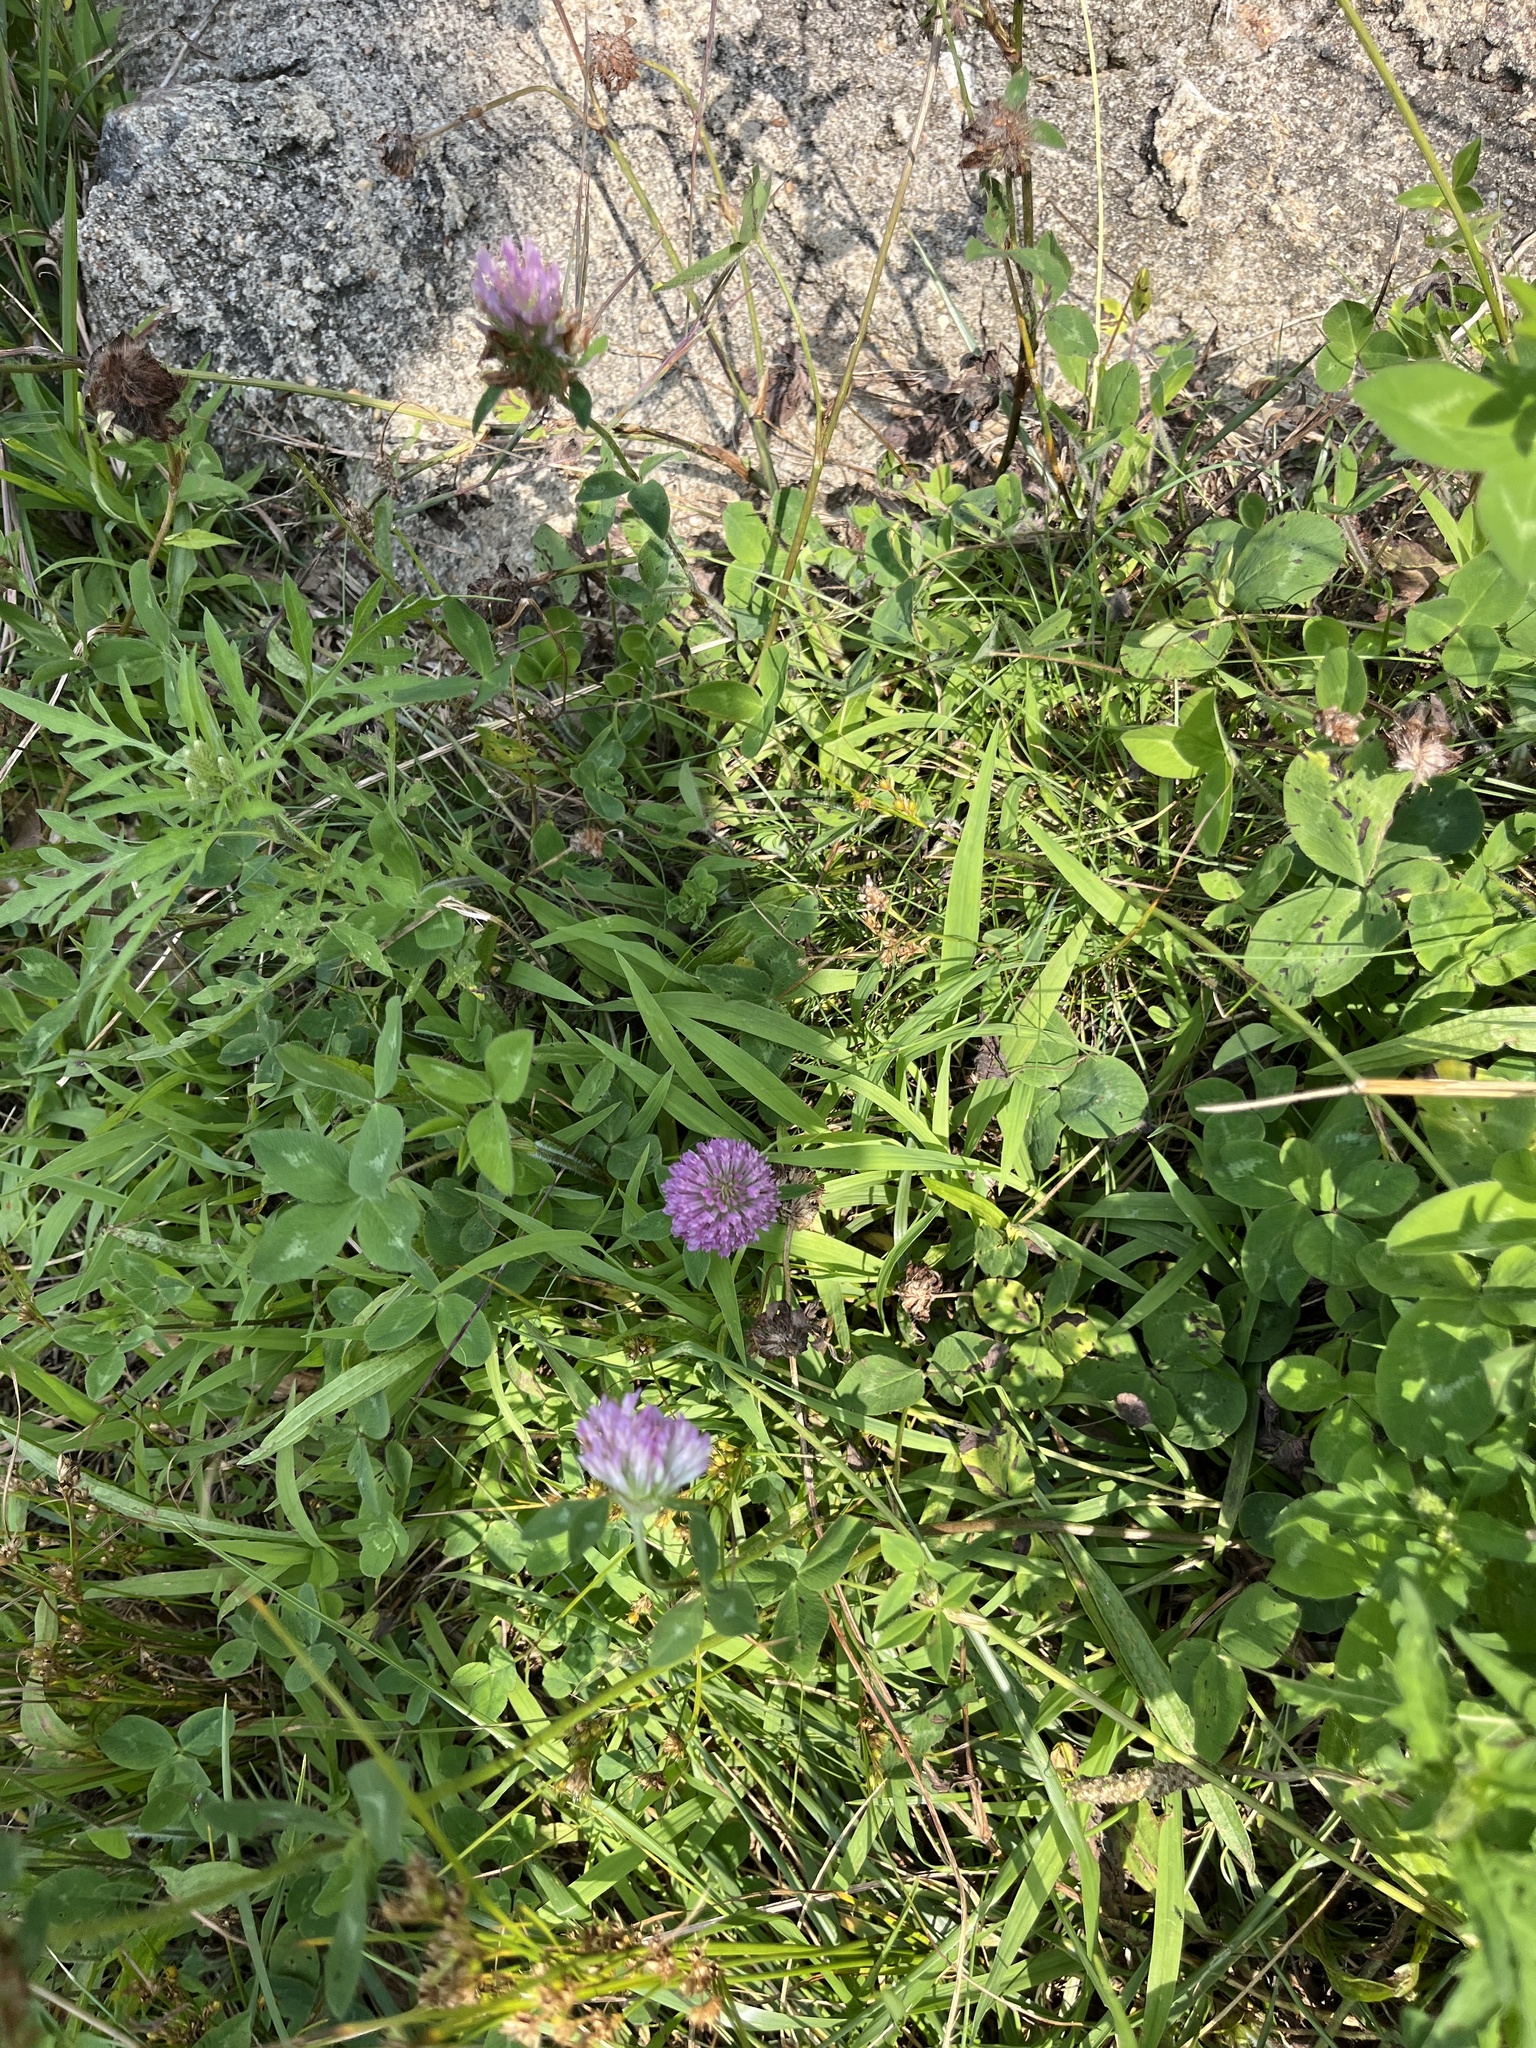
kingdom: Plantae
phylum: Tracheophyta
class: Magnoliopsida
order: Fabales
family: Fabaceae
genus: Trifolium
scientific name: Trifolium pratense
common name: Red clover
